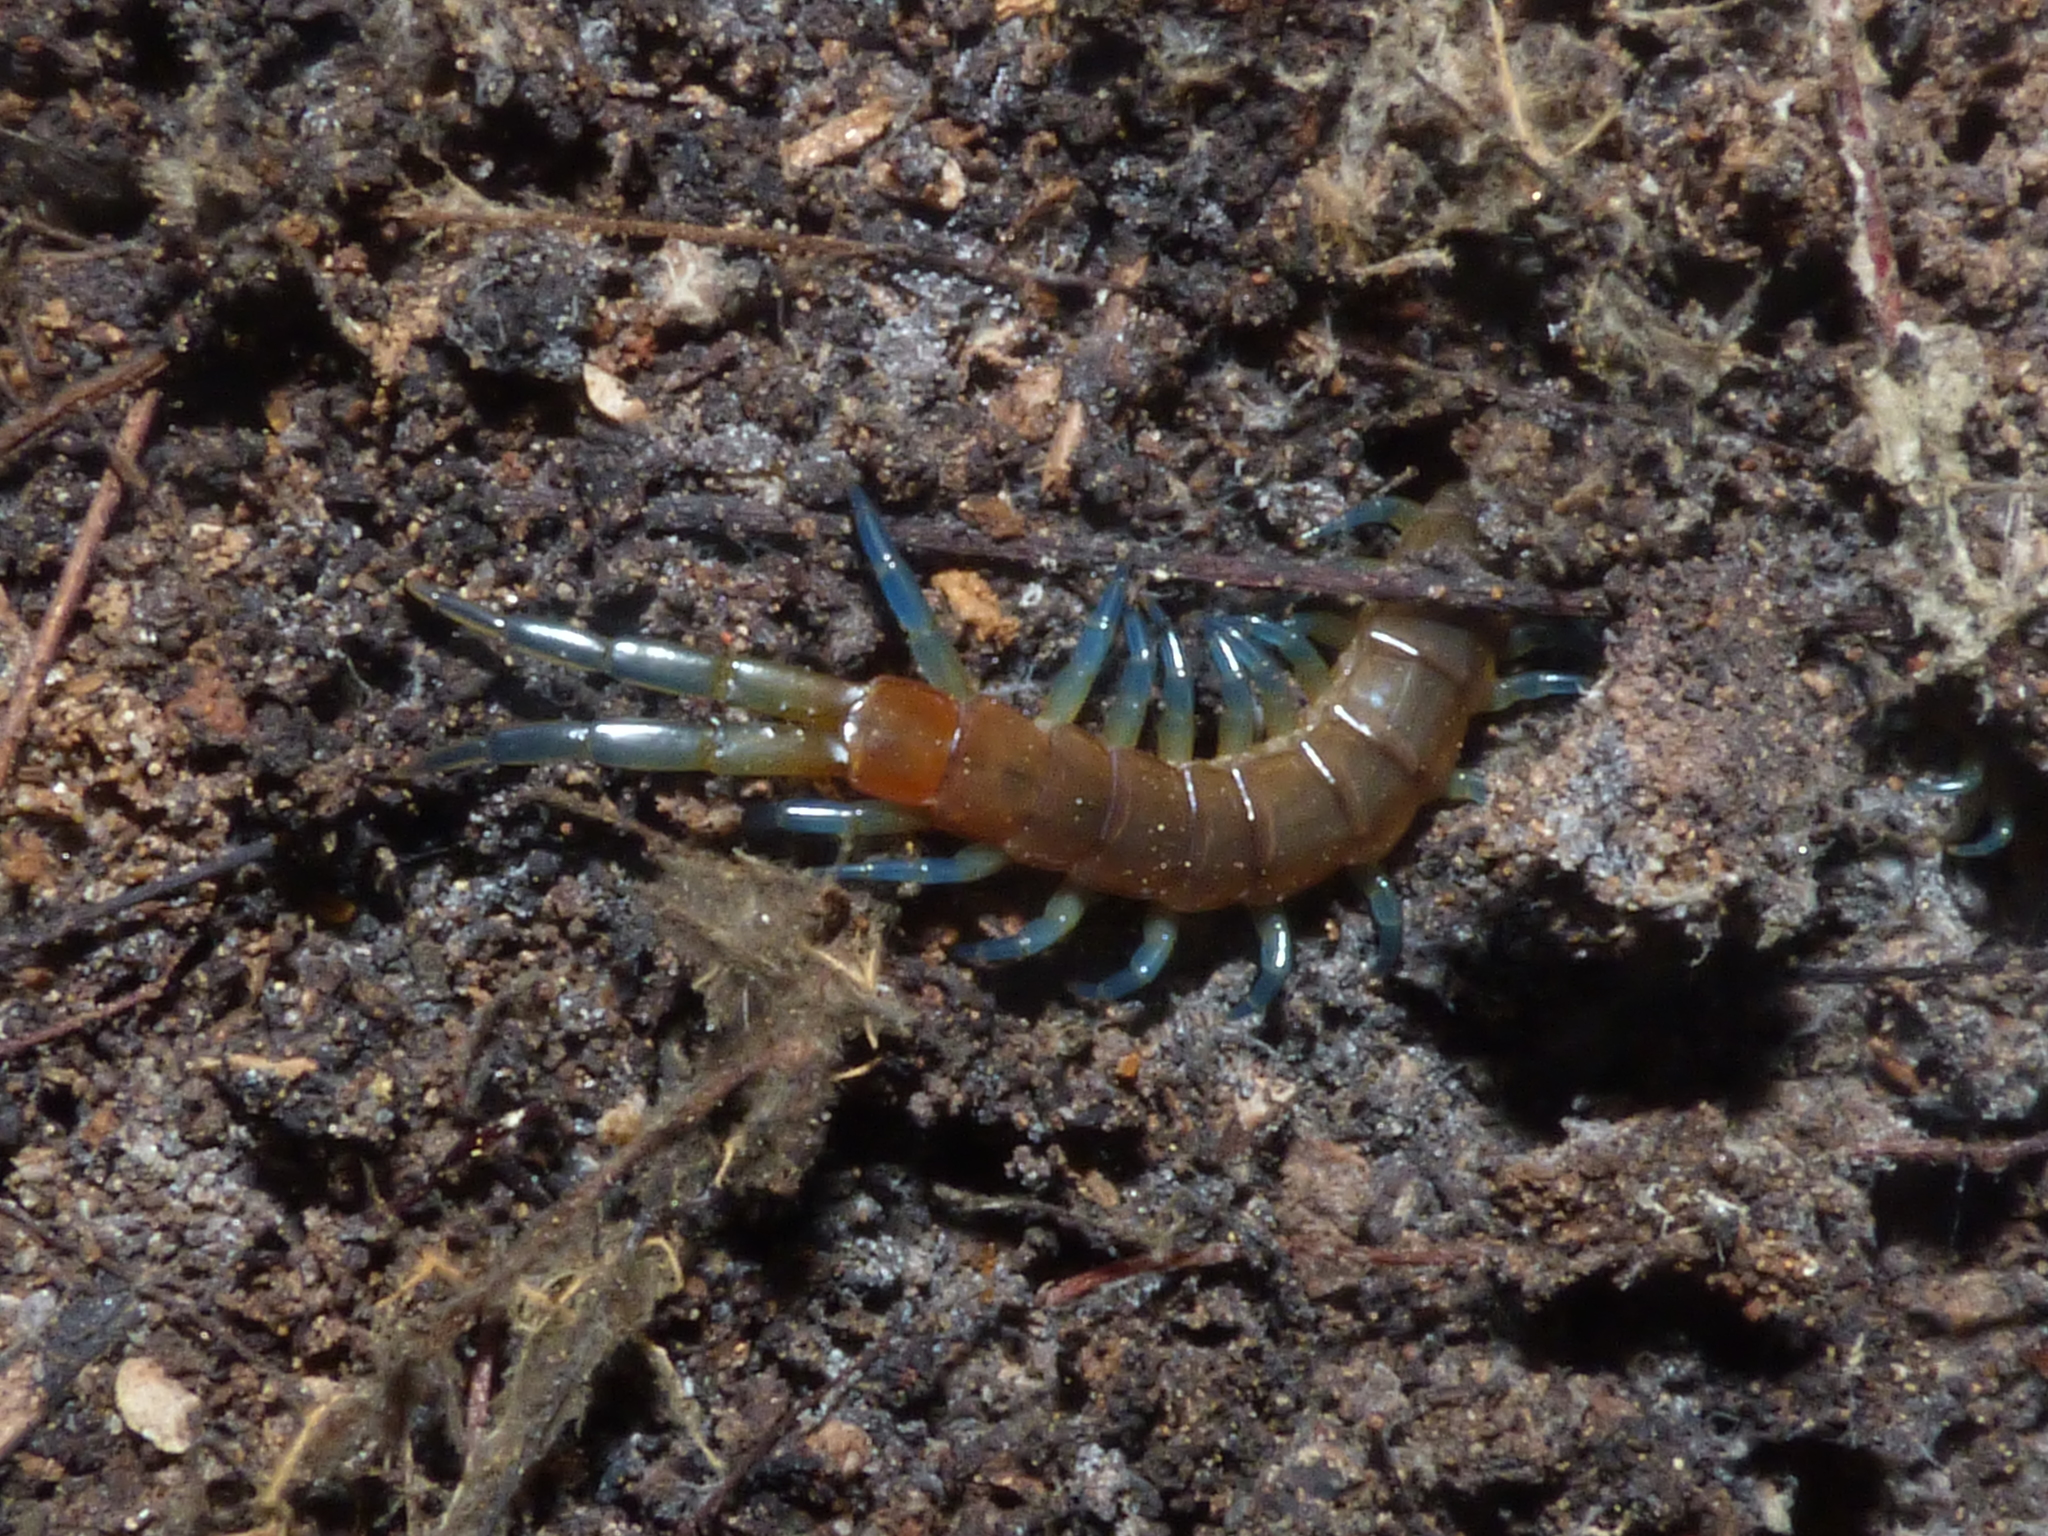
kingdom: Animalia
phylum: Arthropoda
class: Chilopoda
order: Scolopendromorpha
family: Scolopendridae
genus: Scolopendra
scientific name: Scolopendra dalmatica
